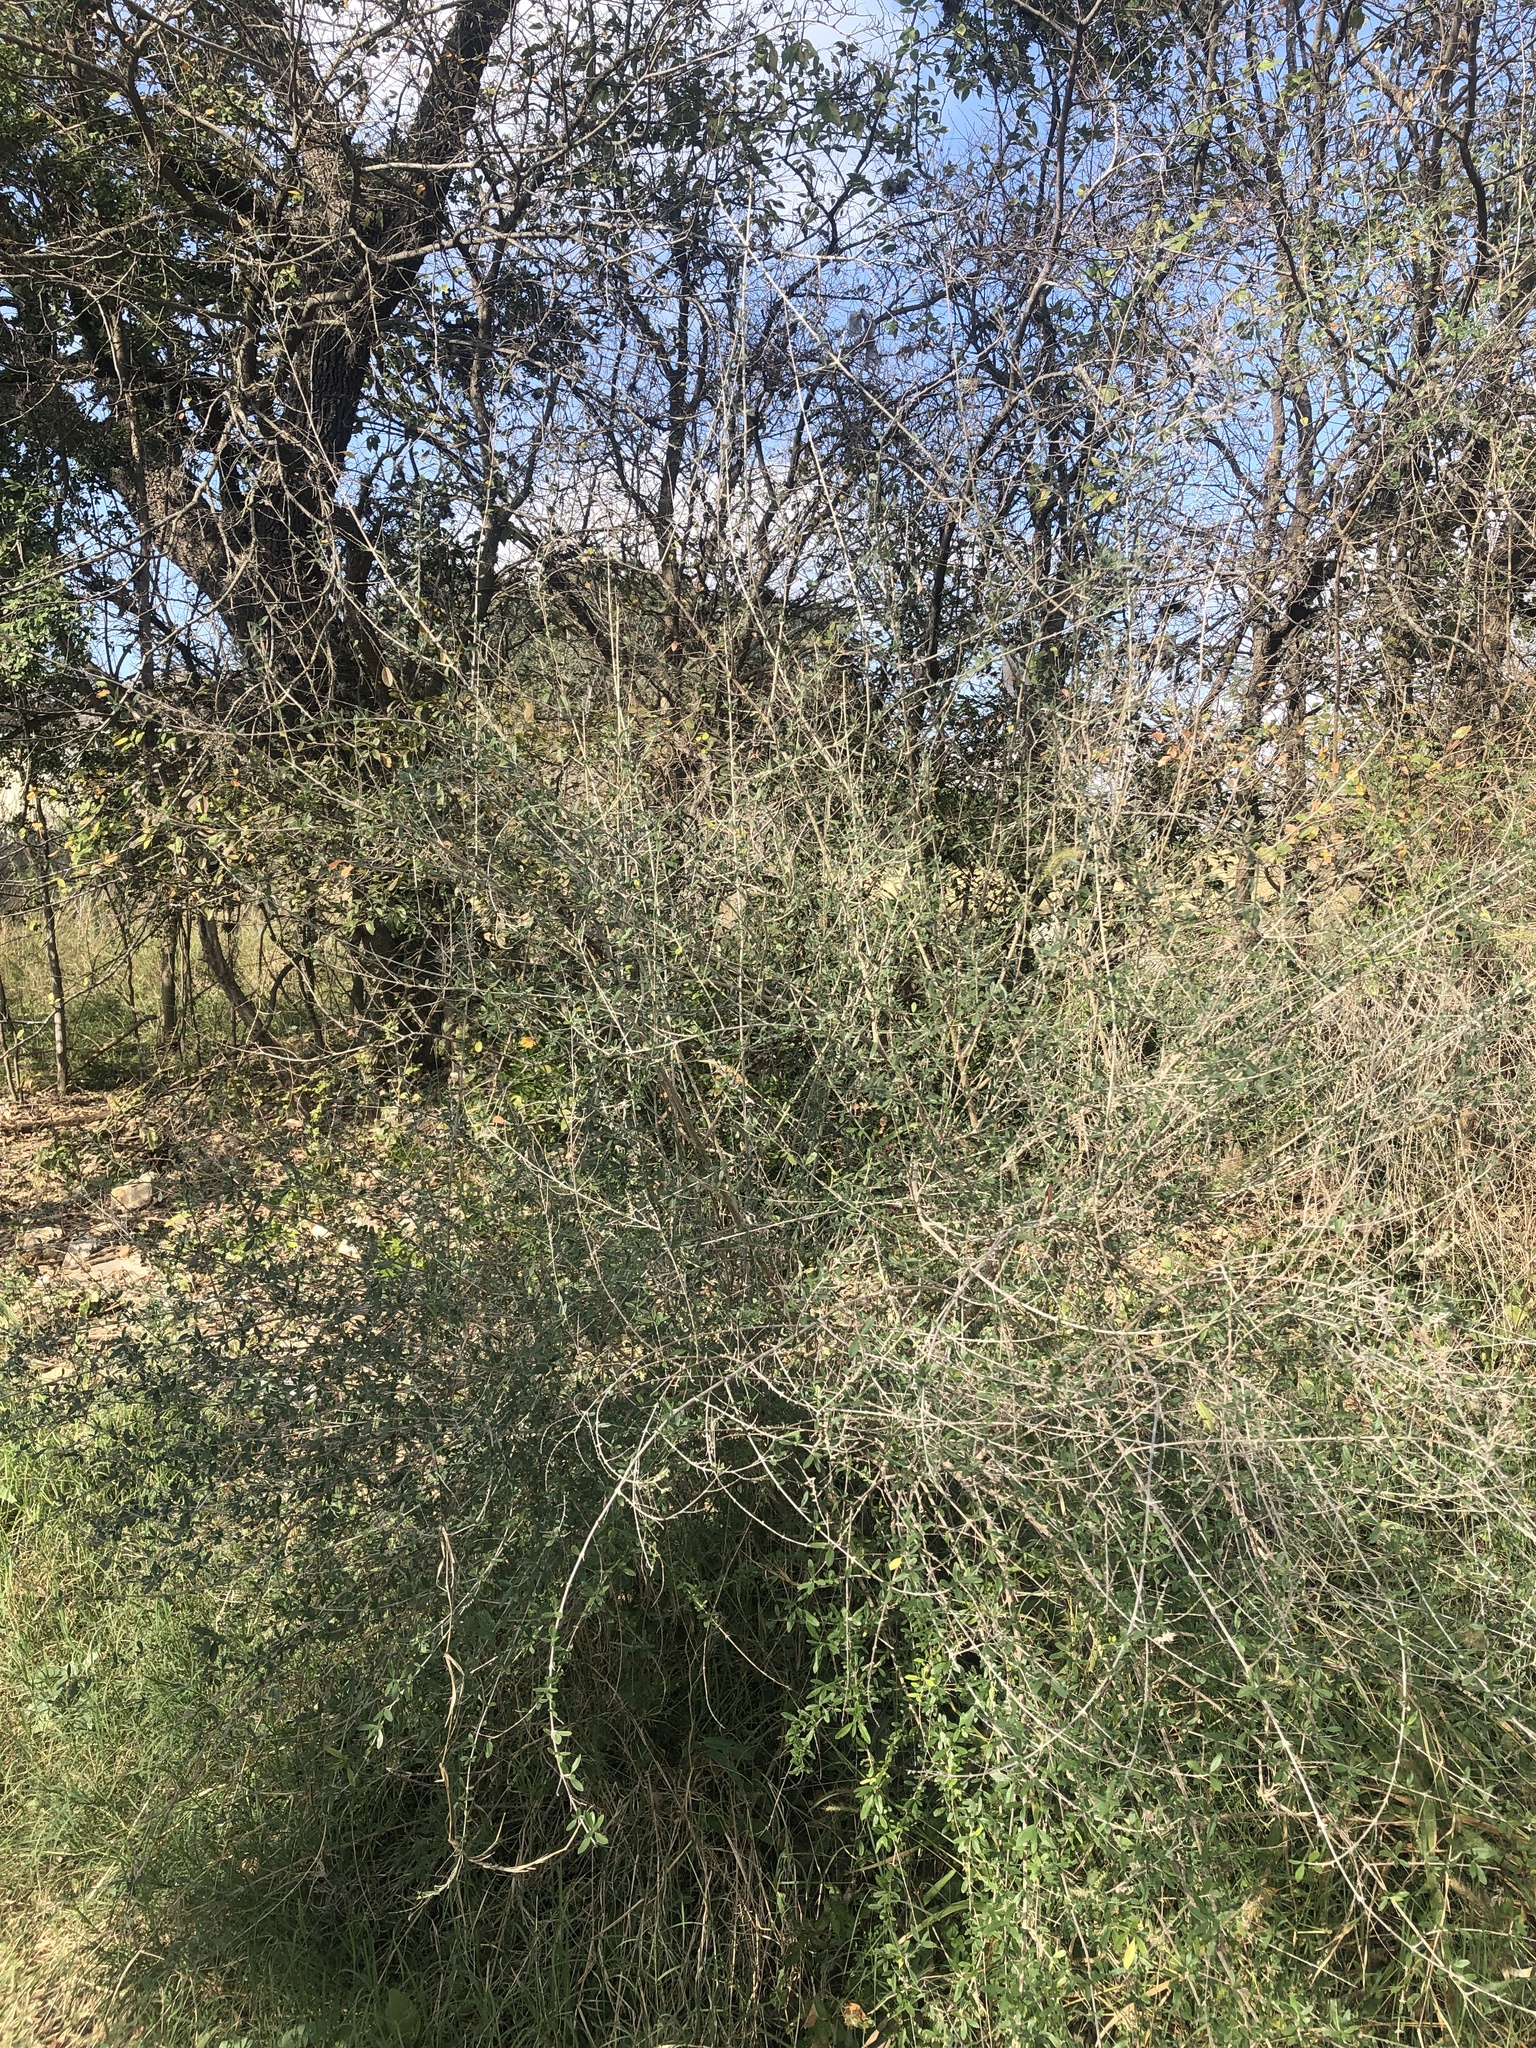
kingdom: Plantae
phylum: Tracheophyta
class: Magnoliopsida
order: Lamiales
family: Verbenaceae
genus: Aloysia
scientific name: Aloysia gratissima
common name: Common bee-brush
